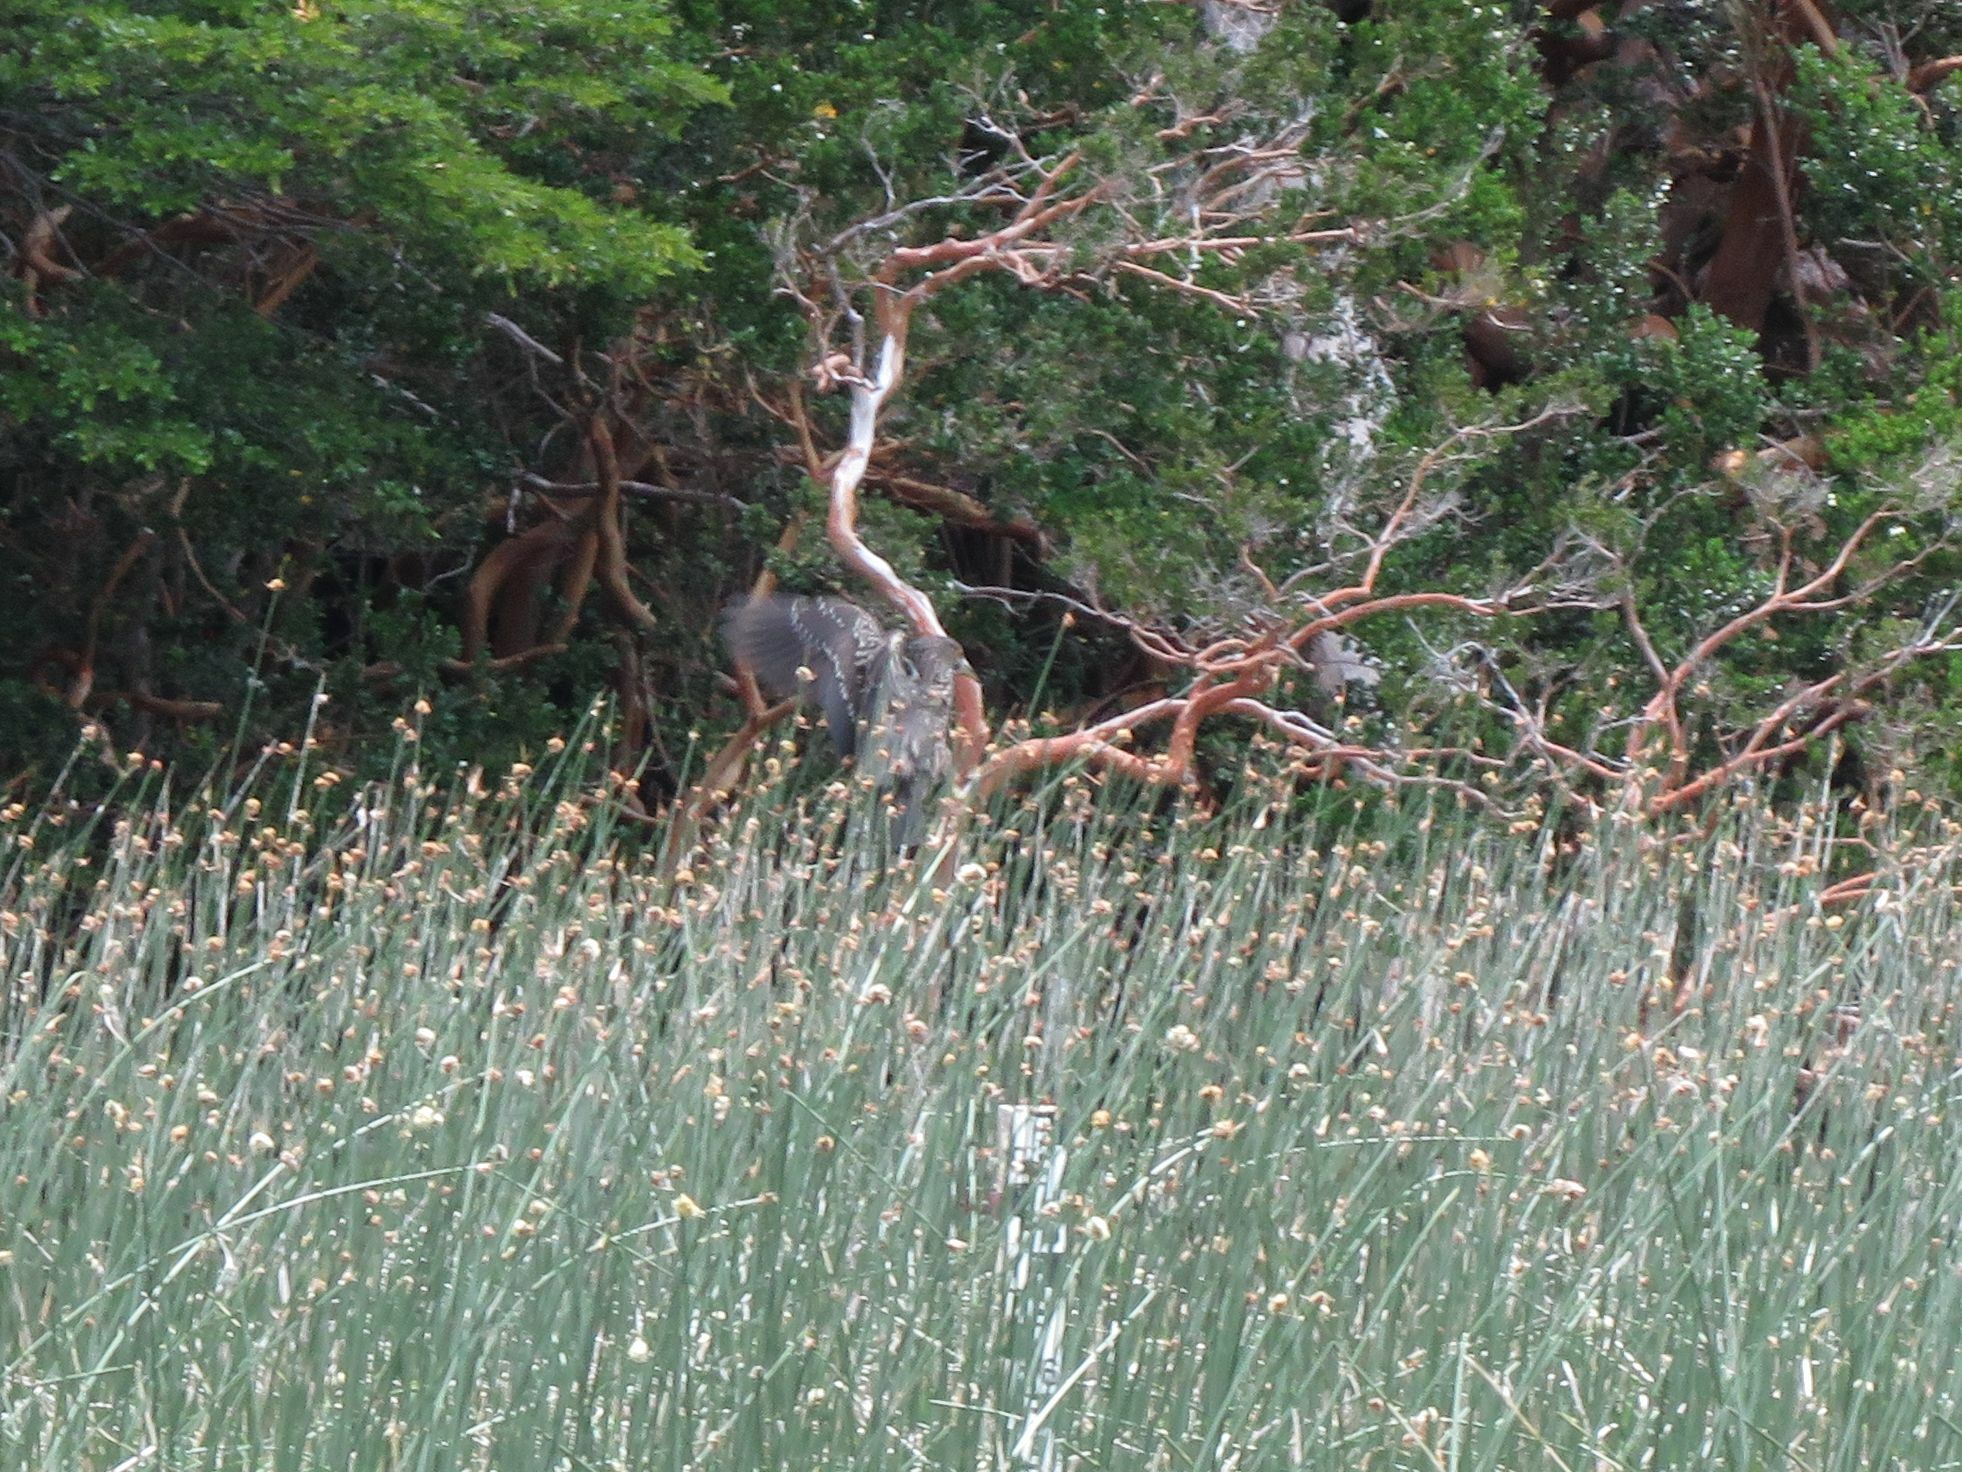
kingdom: Animalia
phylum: Chordata
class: Aves
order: Pelecaniformes
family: Ardeidae
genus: Nycticorax
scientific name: Nycticorax nycticorax
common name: Black-crowned night heron
